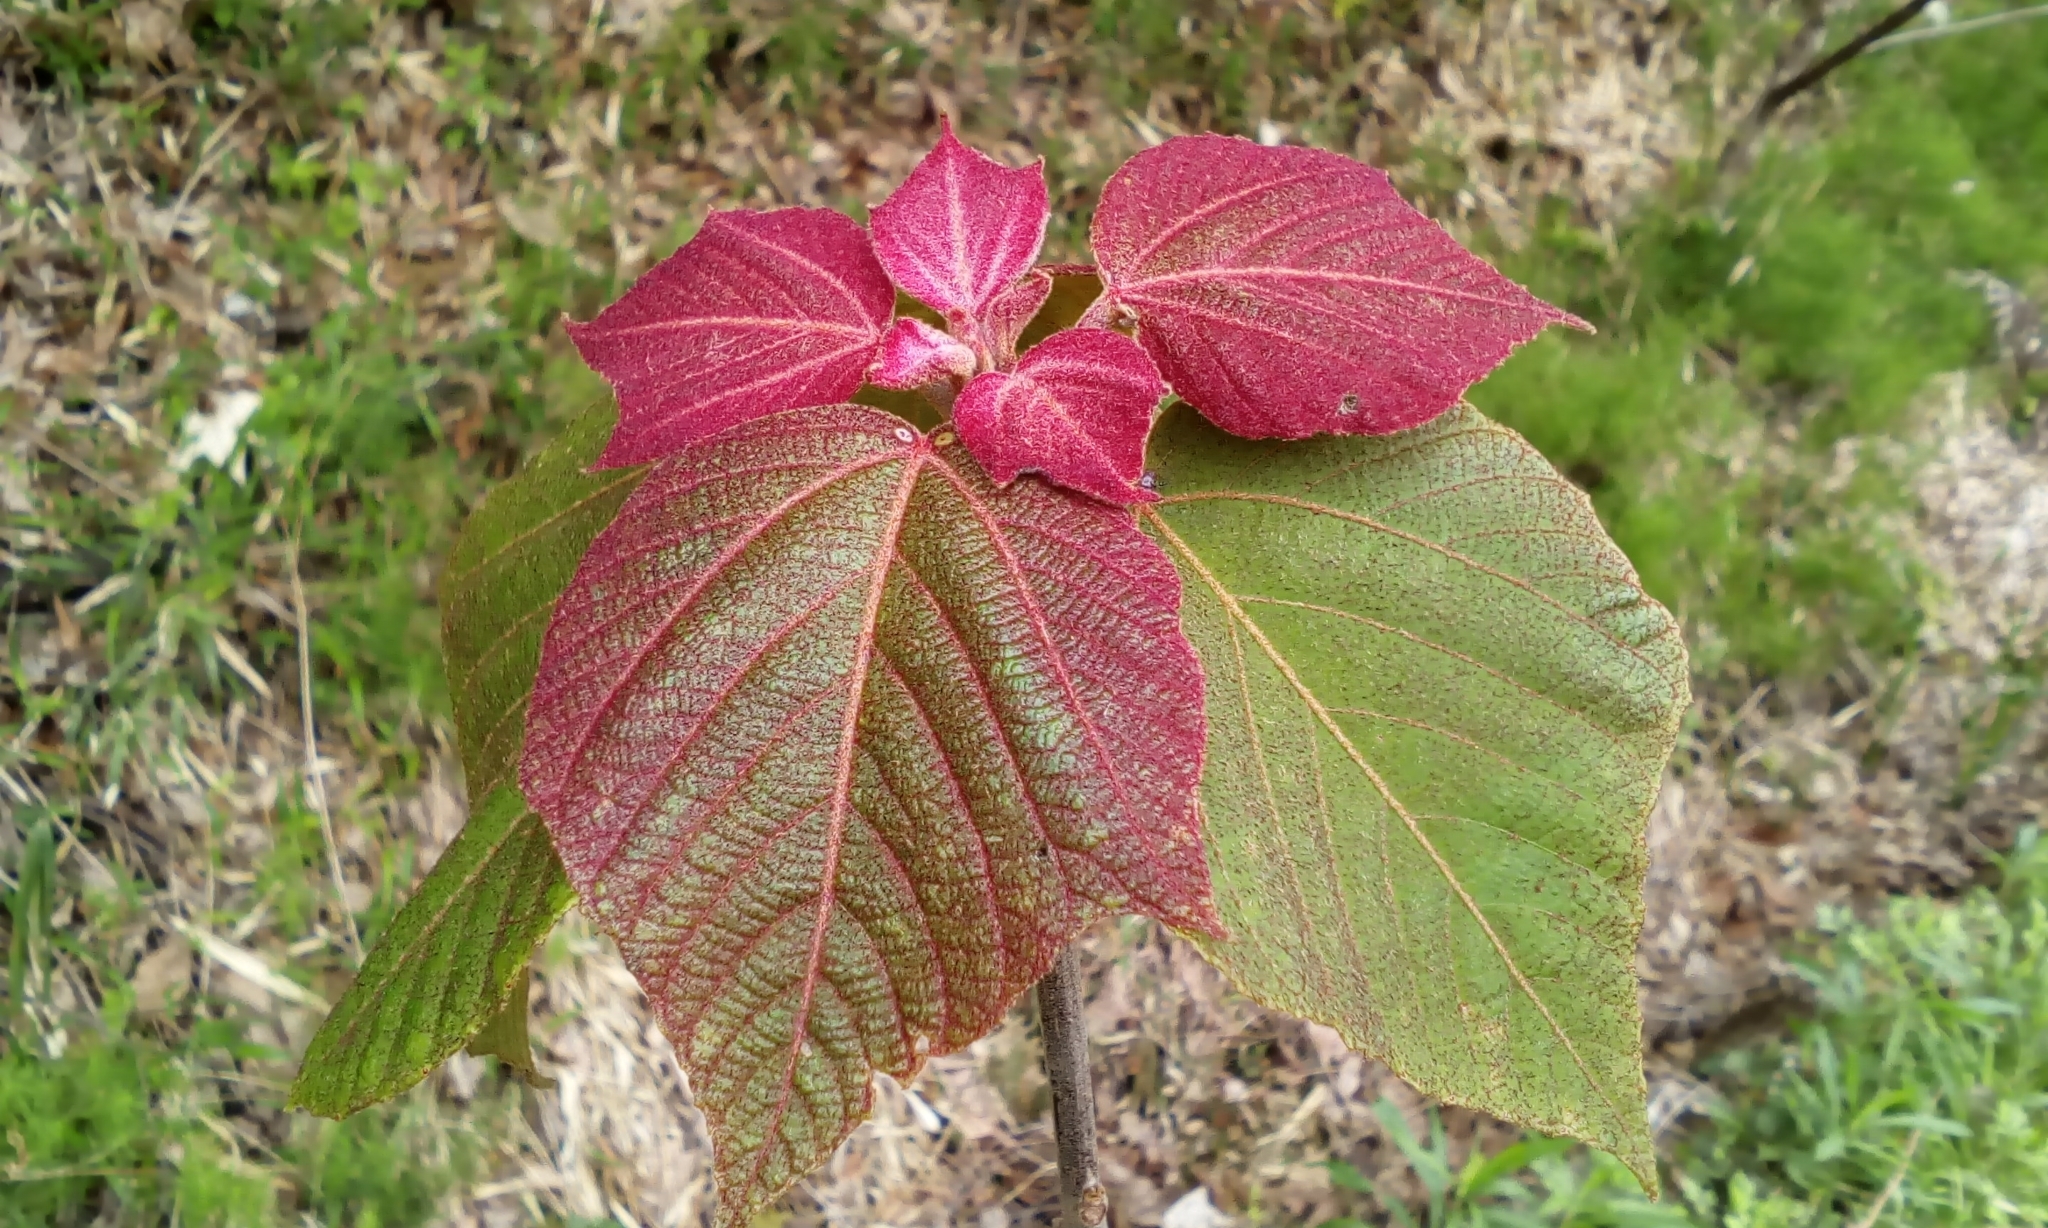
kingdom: Plantae
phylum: Tracheophyta
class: Magnoliopsida
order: Malpighiales
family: Euphorbiaceae
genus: Mallotus
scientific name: Mallotus japonicus
